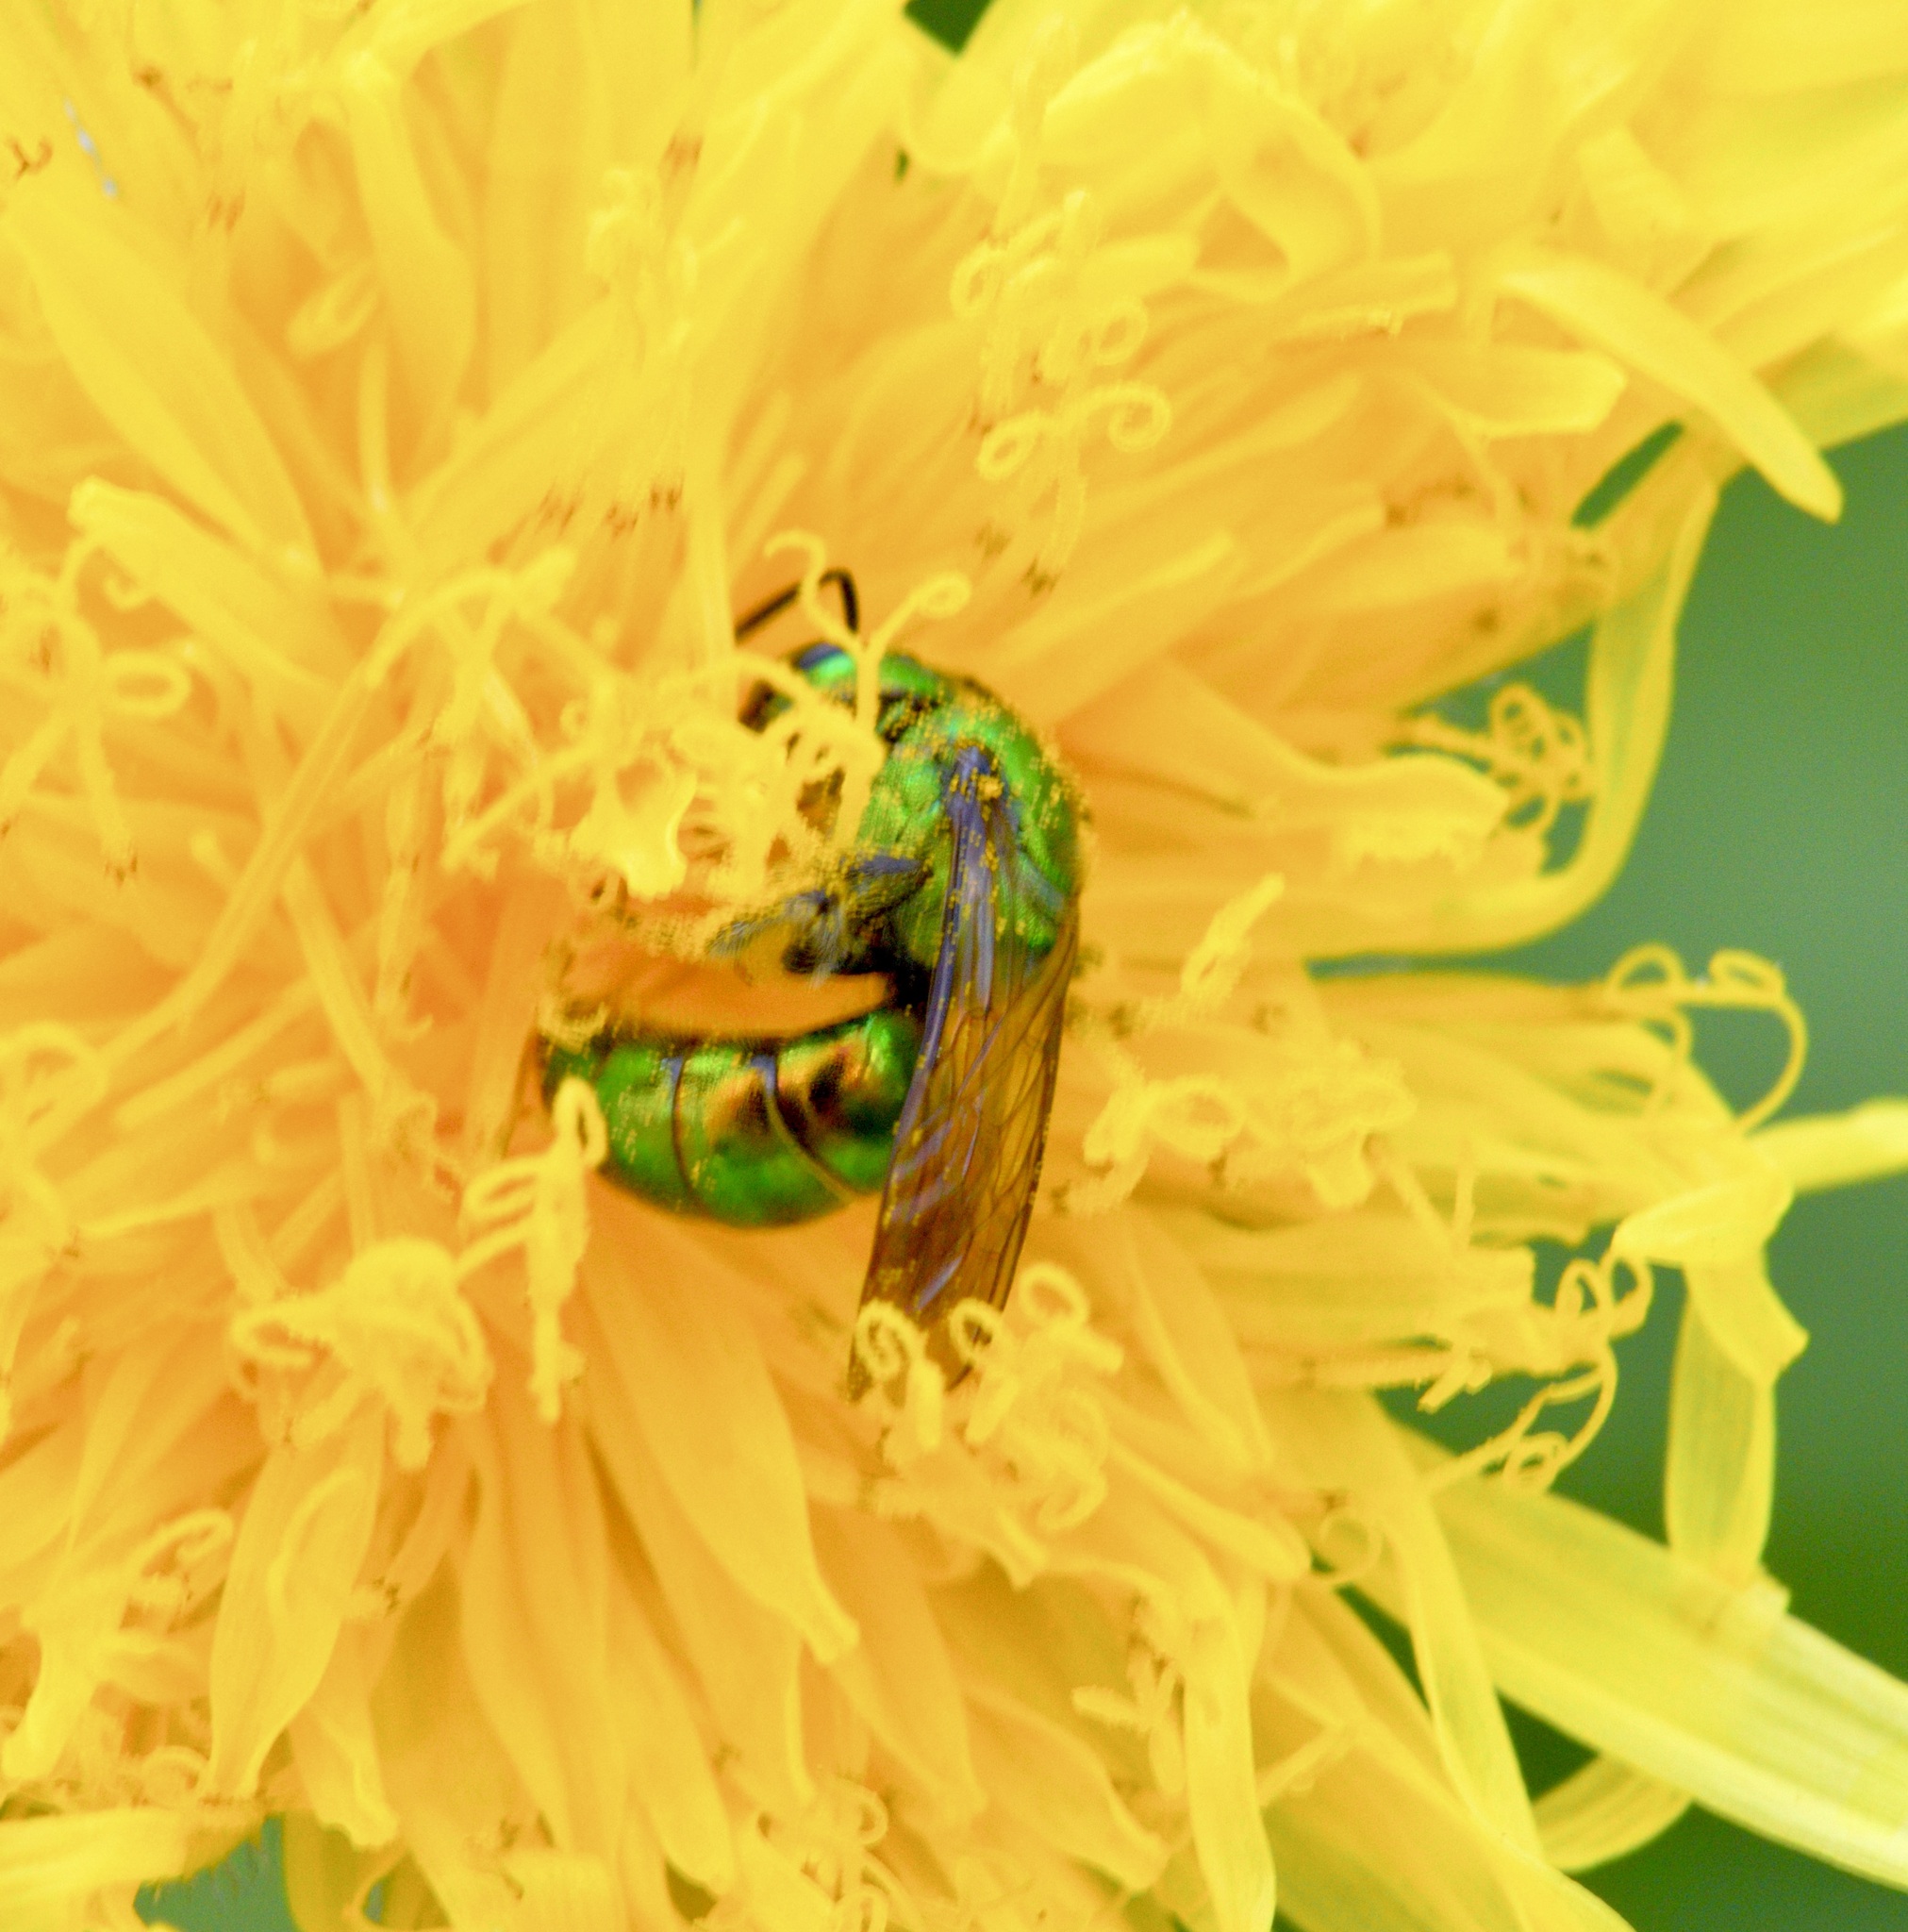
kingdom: Animalia
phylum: Arthropoda
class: Insecta
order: Hymenoptera
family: Halictidae
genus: Augochlora
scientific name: Augochlora pura
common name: Pure green sweat bee
